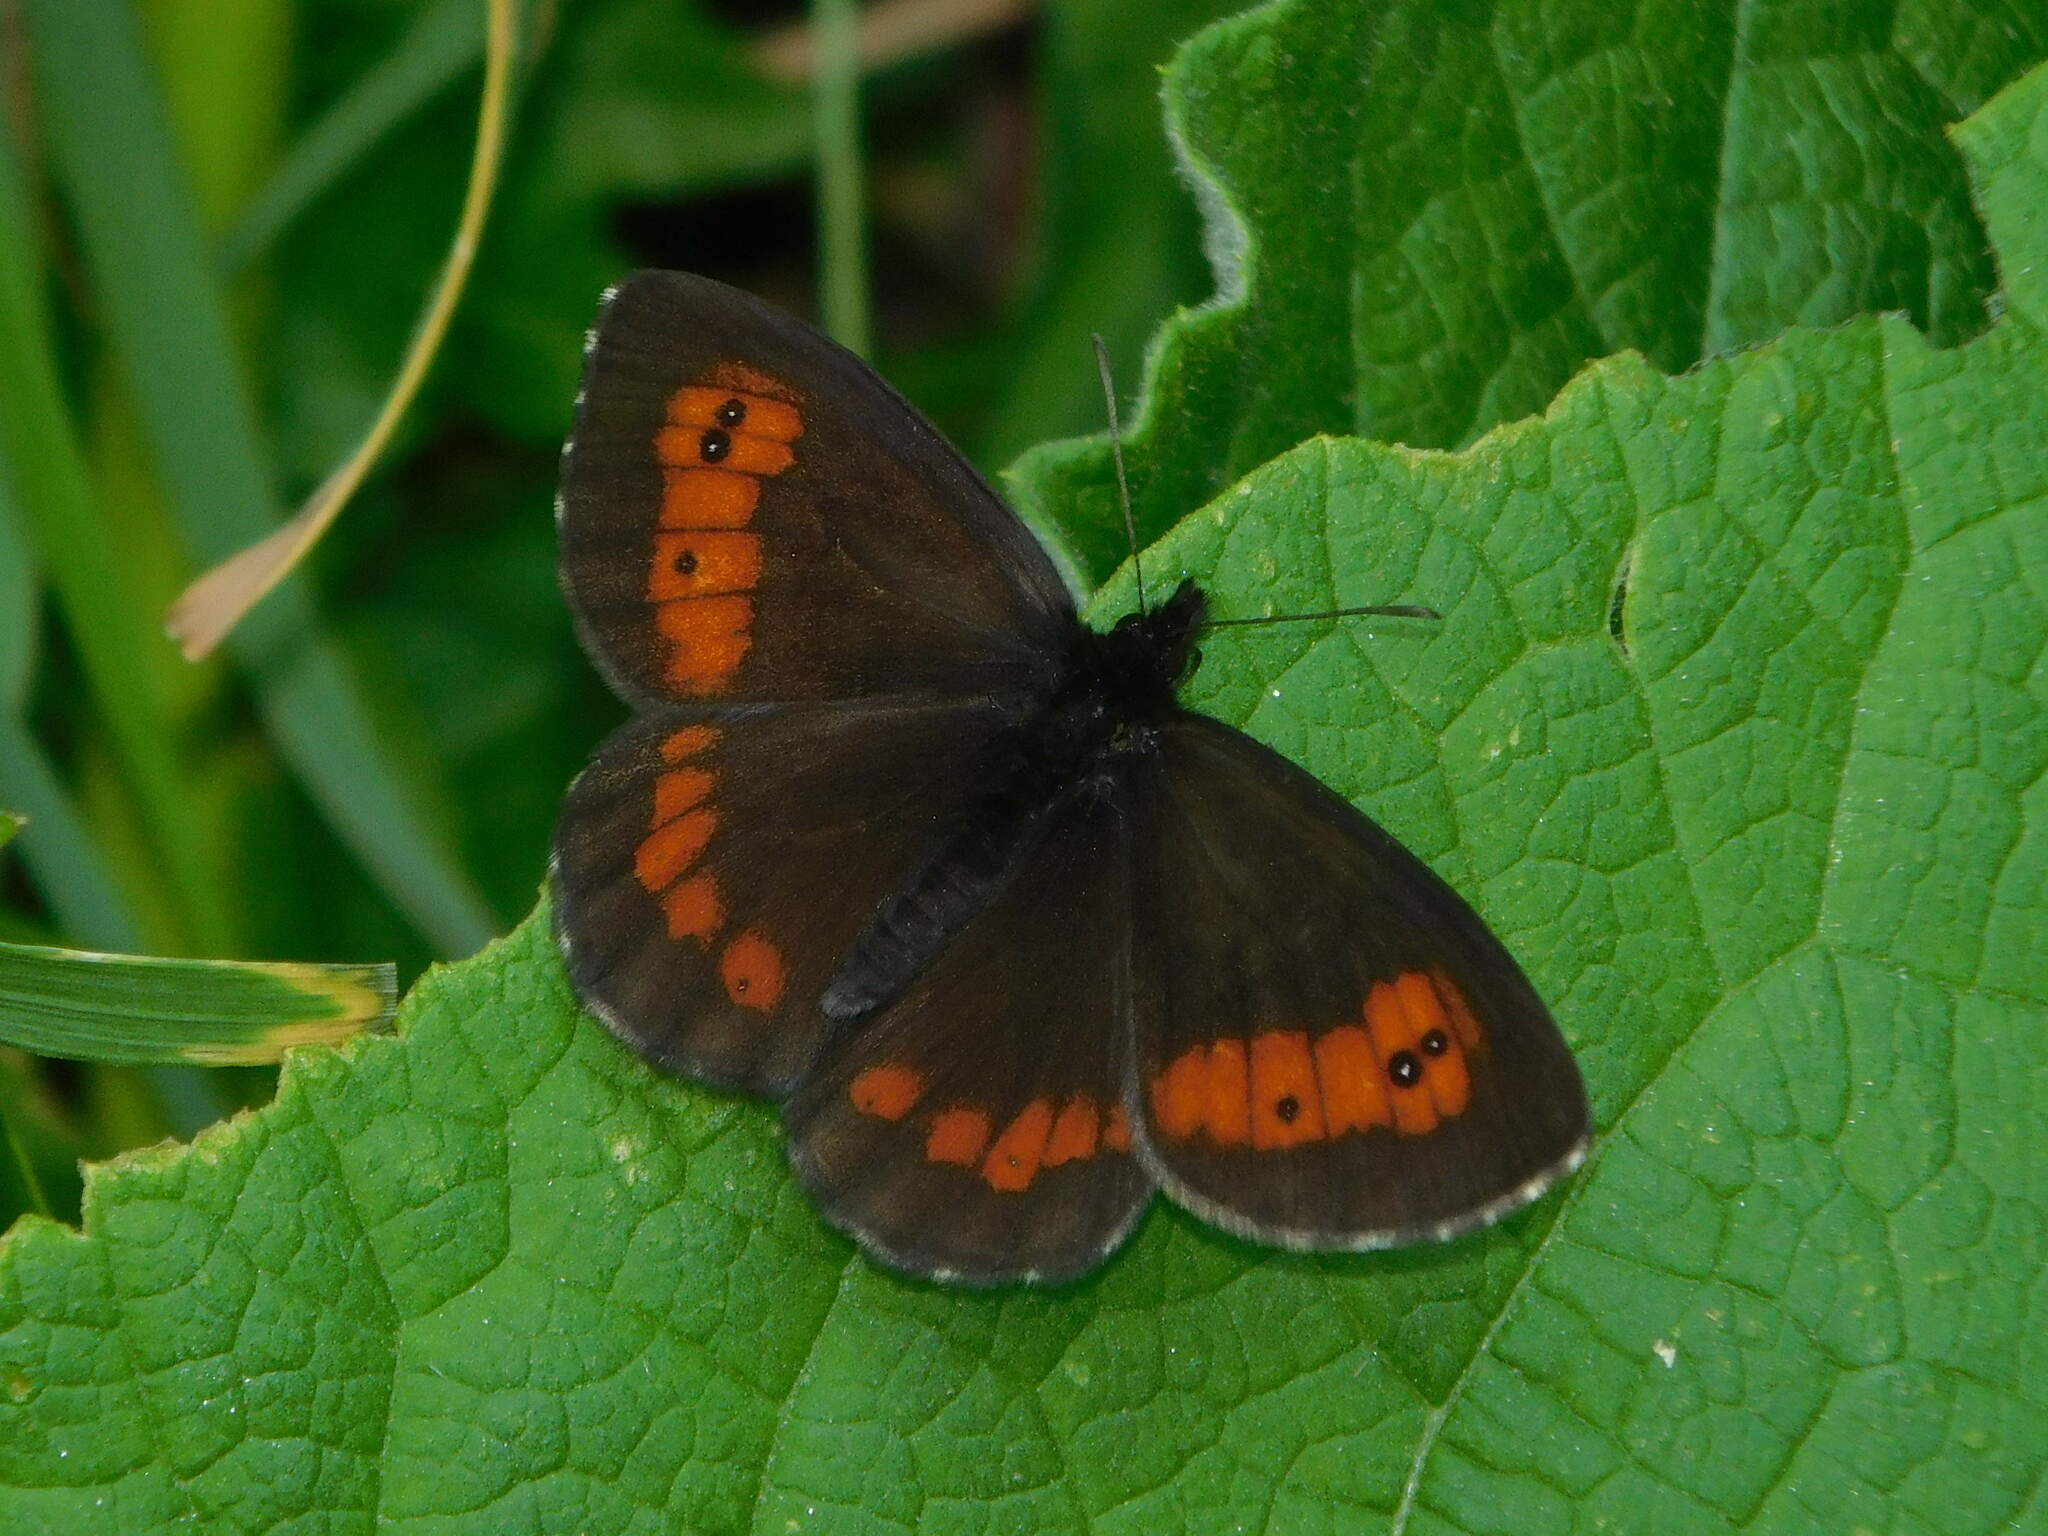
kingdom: Animalia
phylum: Arthropoda
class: Insecta
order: Lepidoptera
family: Nymphalidae
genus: Erebia
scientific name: Erebia euryale
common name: Large ringlet
